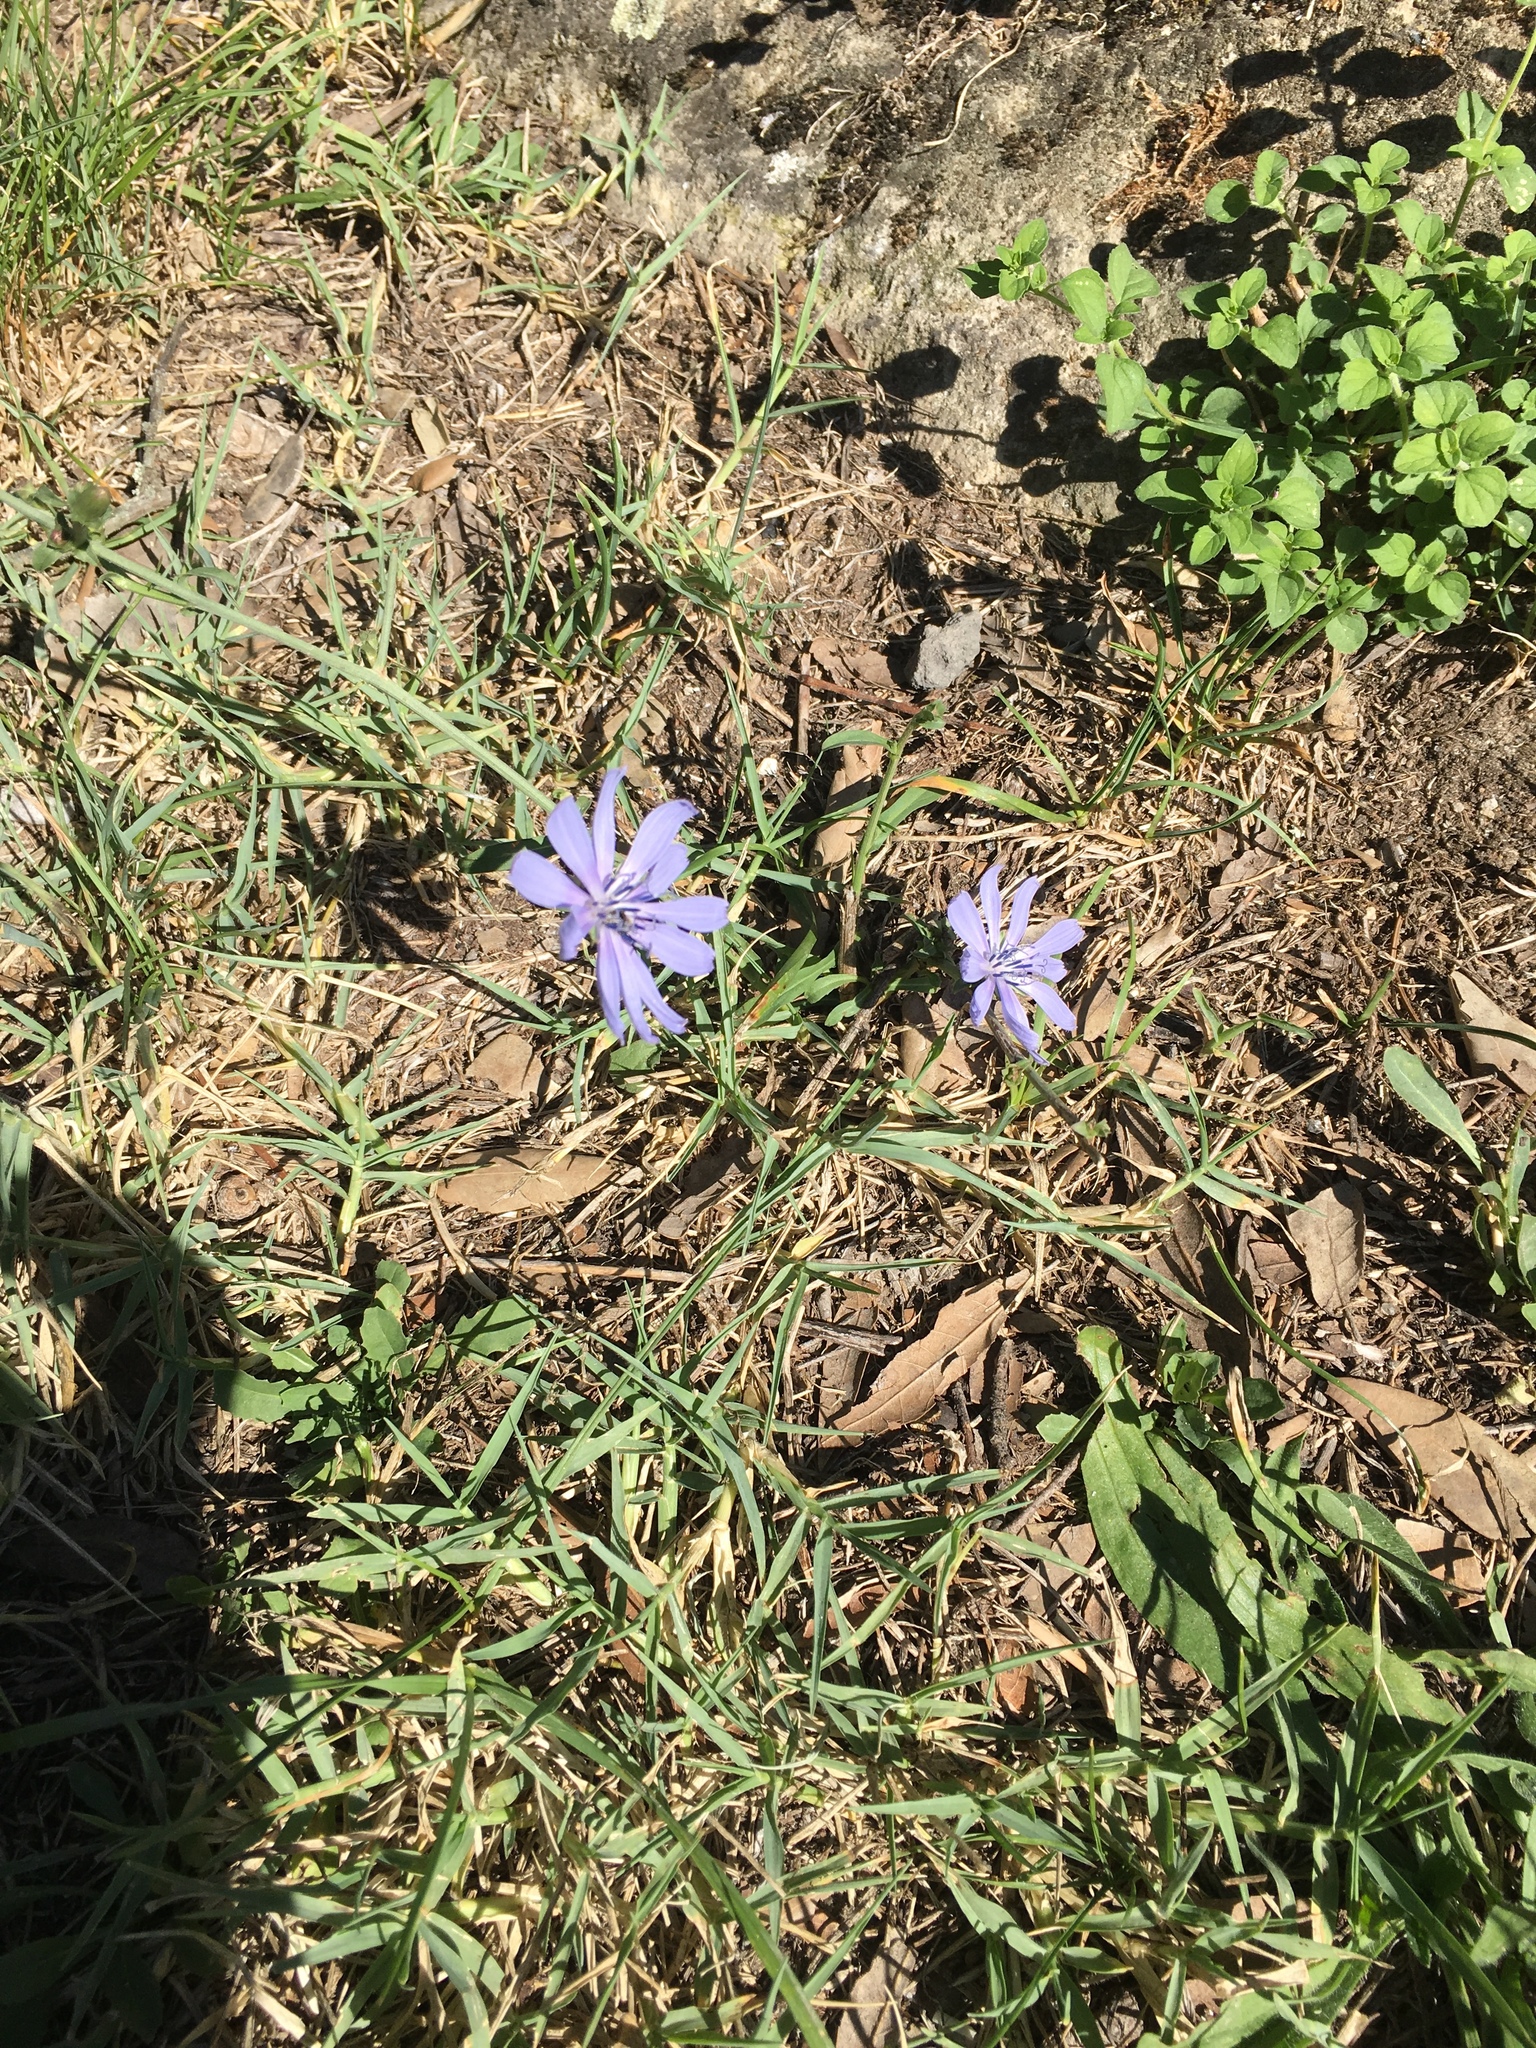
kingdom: Plantae
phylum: Tracheophyta
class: Magnoliopsida
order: Asterales
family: Asteraceae
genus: Cichorium
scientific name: Cichorium intybus
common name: Chicory
